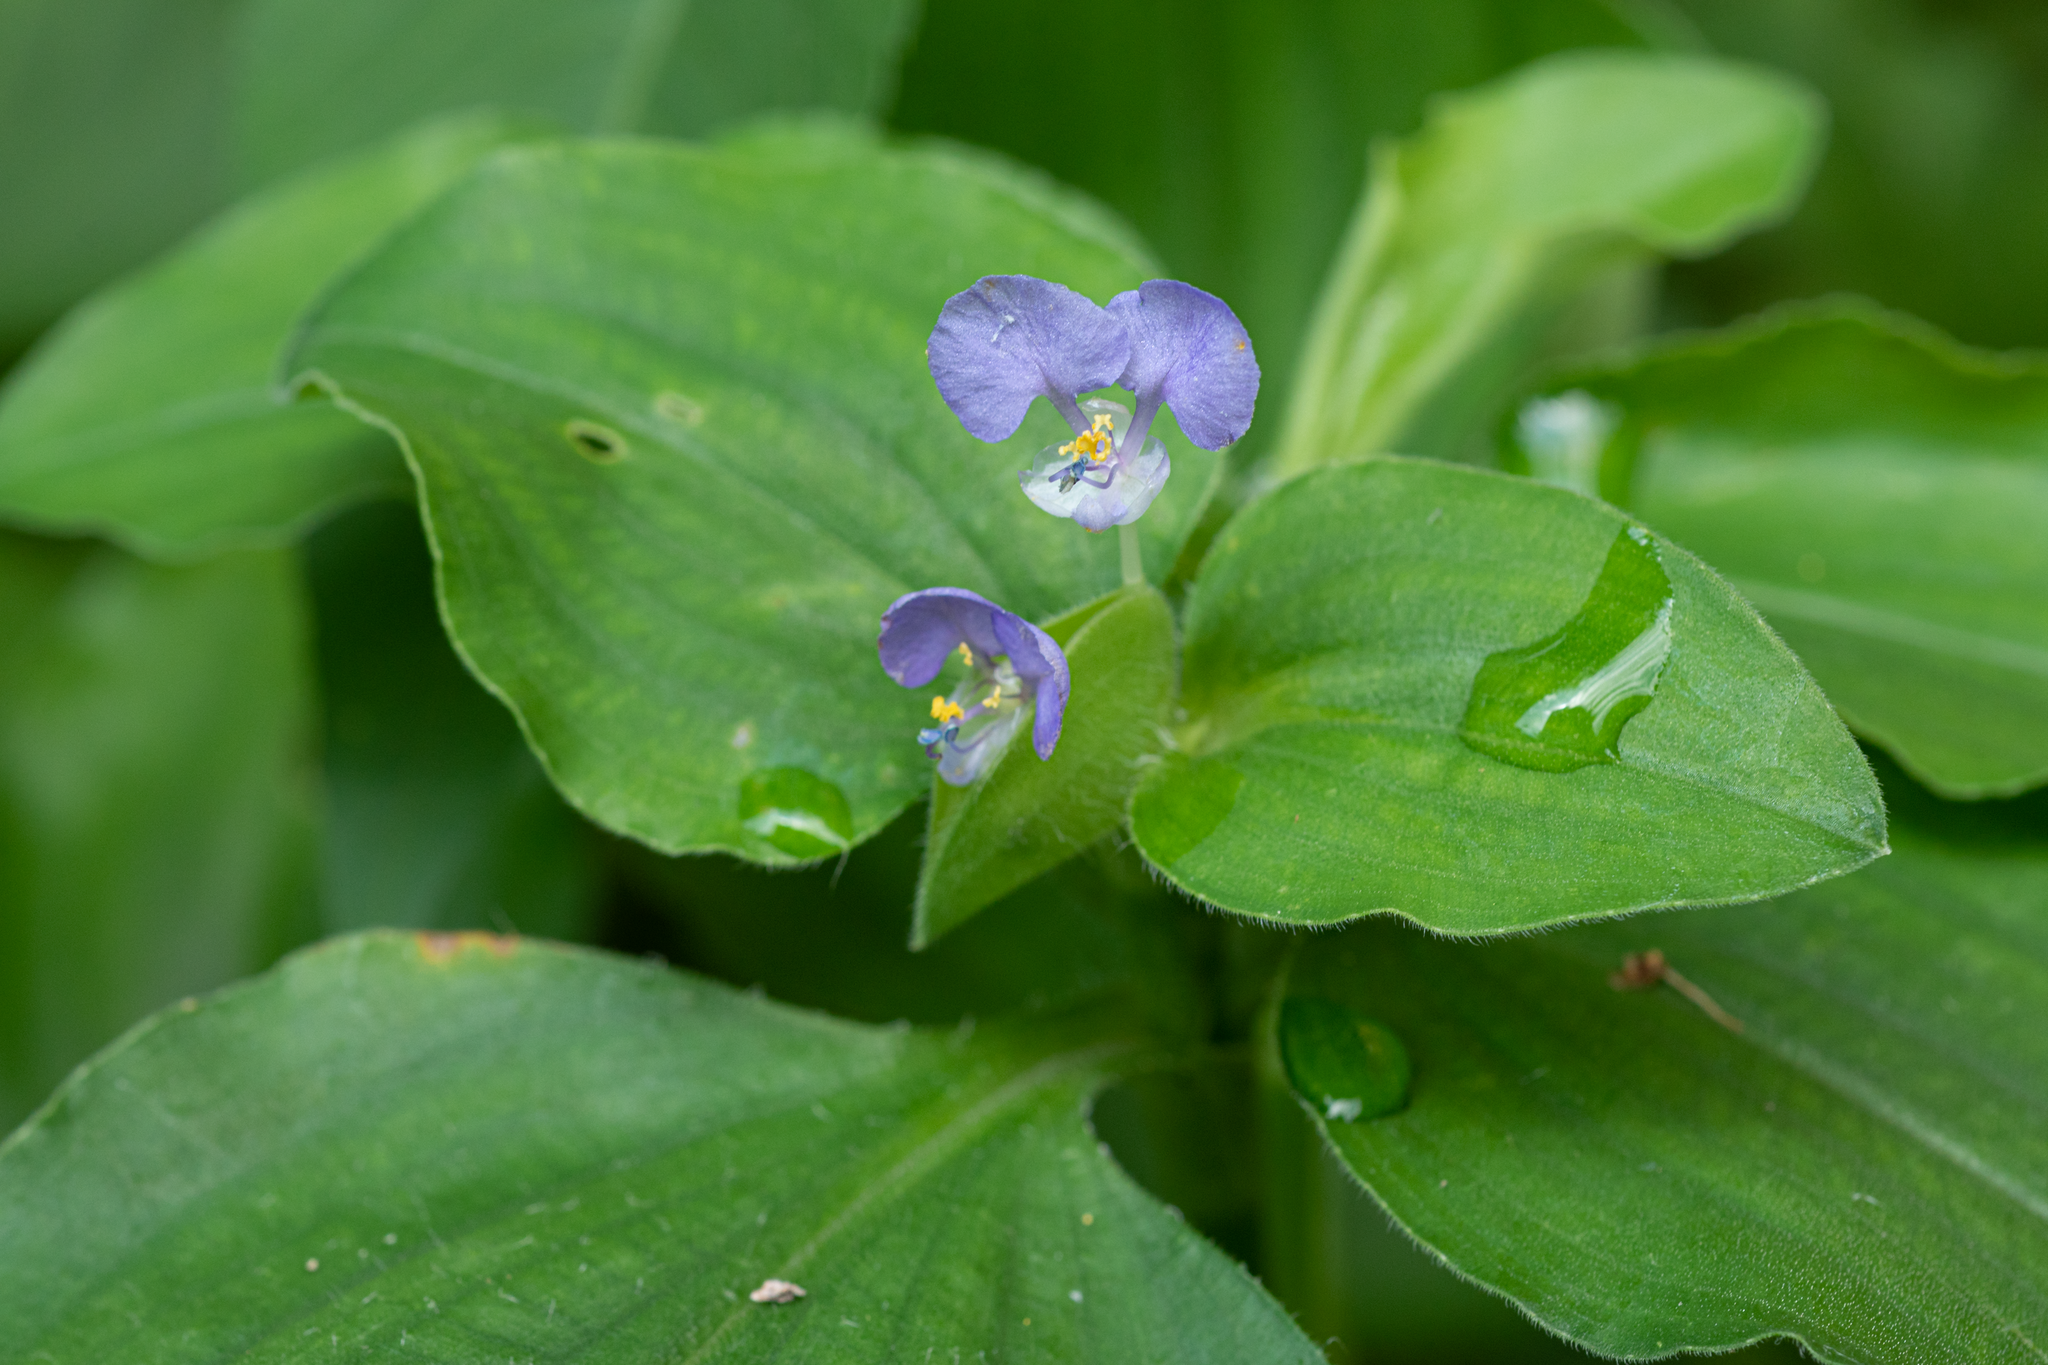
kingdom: Plantae
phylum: Tracheophyta
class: Liliopsida
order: Commelinales
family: Commelinaceae
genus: Commelina
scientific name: Commelina benghalensis
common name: Jio
